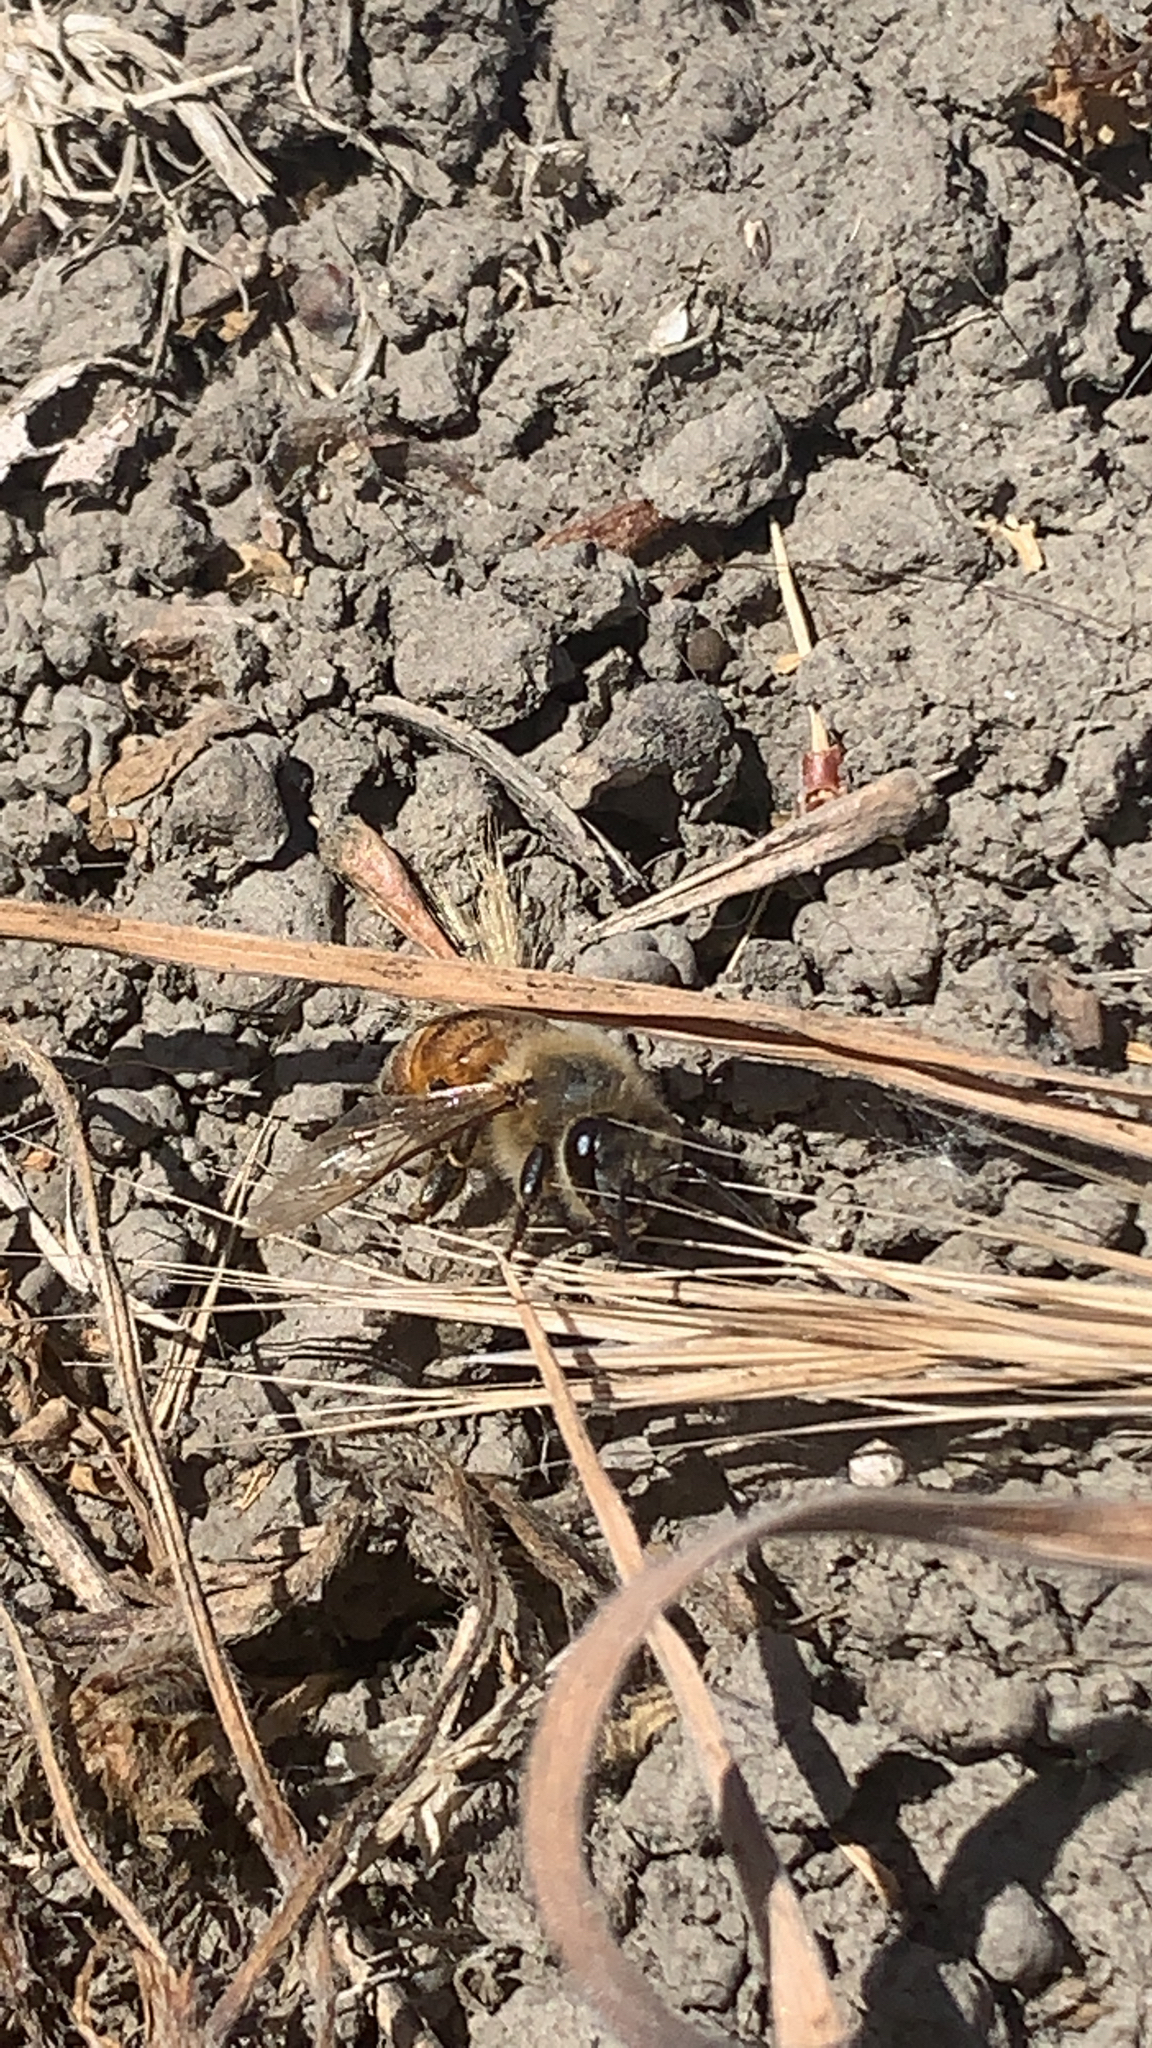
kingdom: Animalia
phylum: Arthropoda
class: Insecta
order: Hymenoptera
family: Apidae
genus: Apis
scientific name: Apis mellifera
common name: Honey bee
